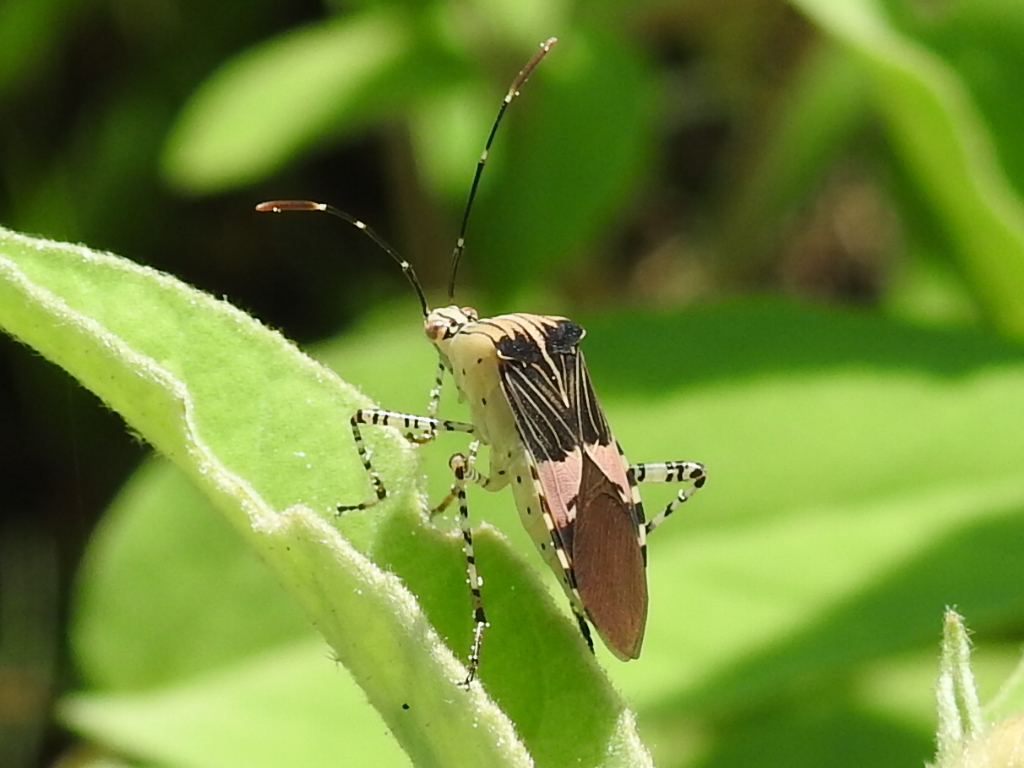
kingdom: Animalia
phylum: Arthropoda
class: Insecta
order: Hemiptera
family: Coreidae
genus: Hypselonotus
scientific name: Hypselonotus punctiventris
